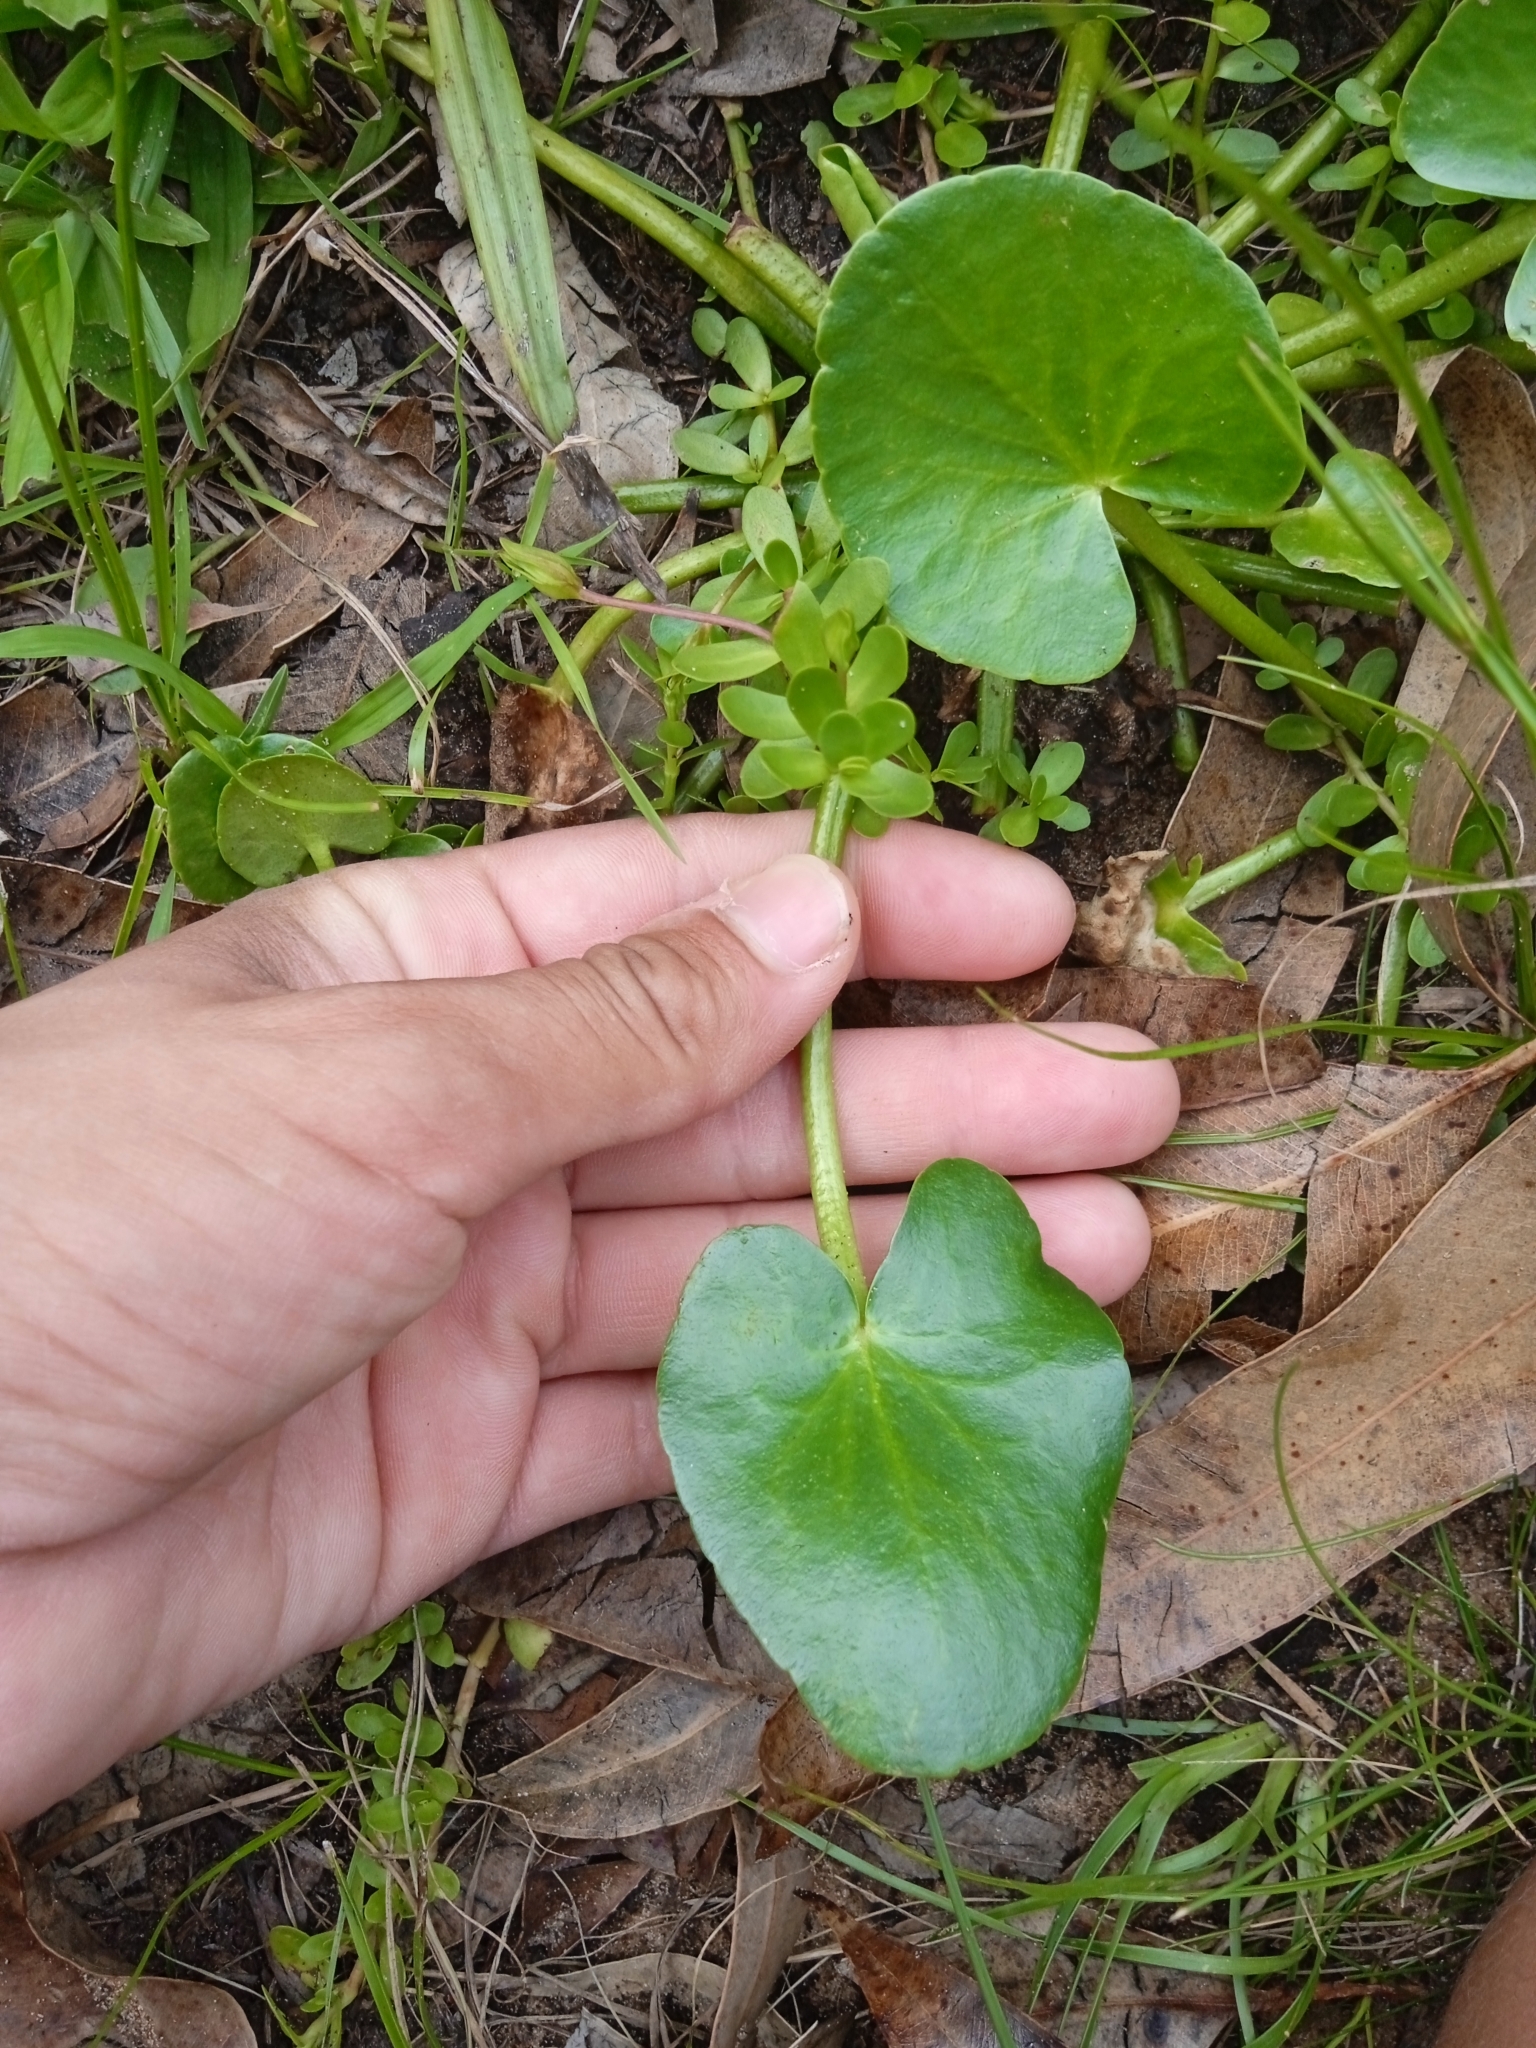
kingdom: Plantae
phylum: Tracheophyta
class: Magnoliopsida
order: Asterales
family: Menyanthaceae
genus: Nymphoides
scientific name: Nymphoides humboldtiana
